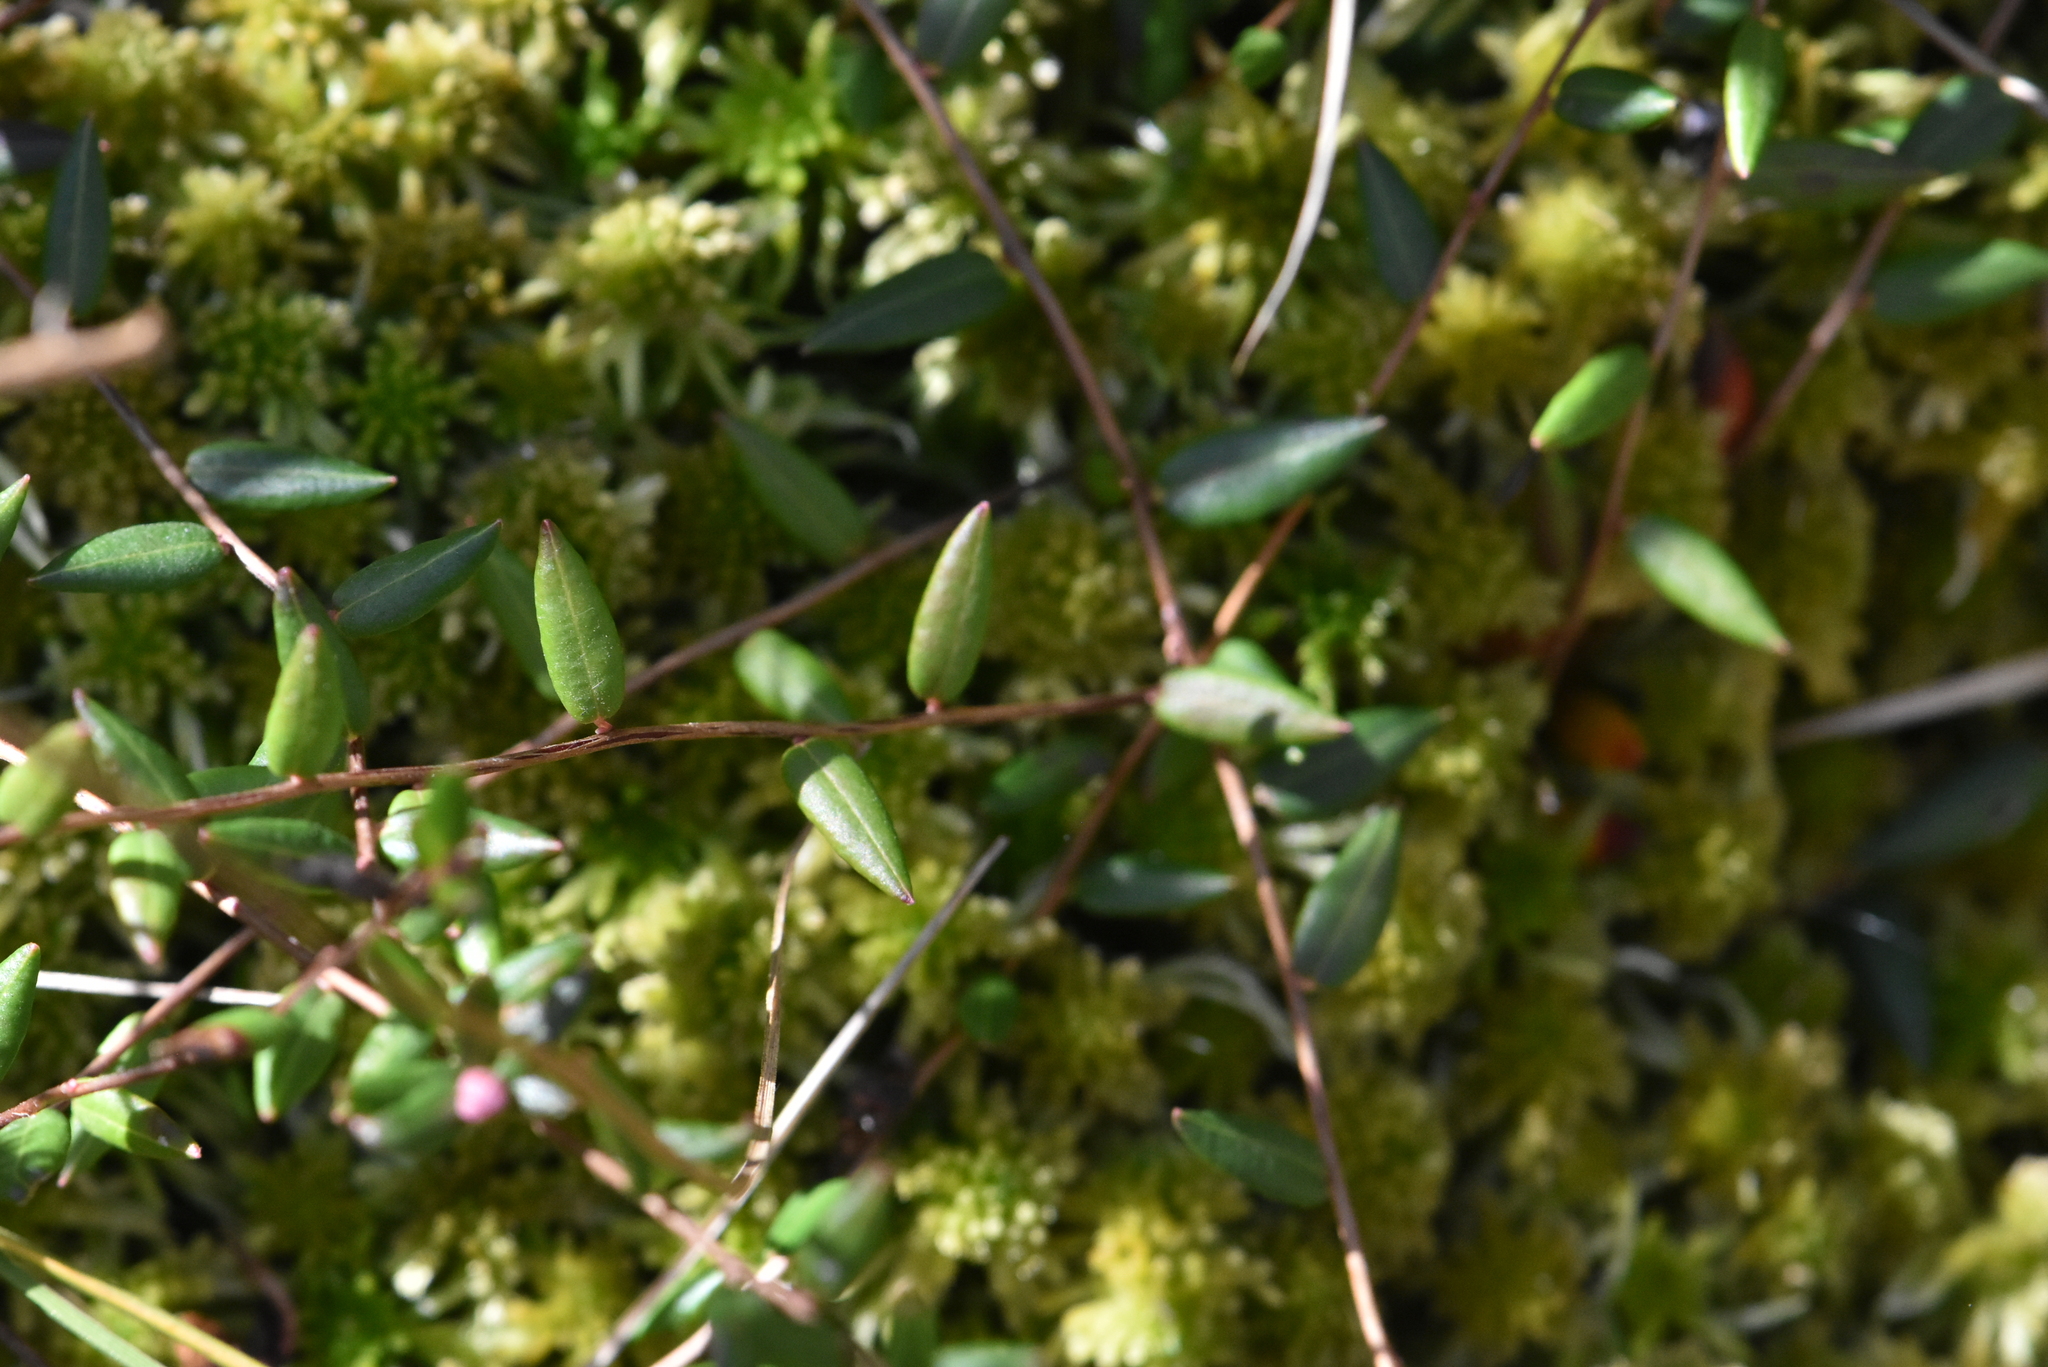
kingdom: Plantae
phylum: Tracheophyta
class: Magnoliopsida
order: Ericales
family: Ericaceae
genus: Vaccinium
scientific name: Vaccinium oxycoccos
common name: Cranberry
